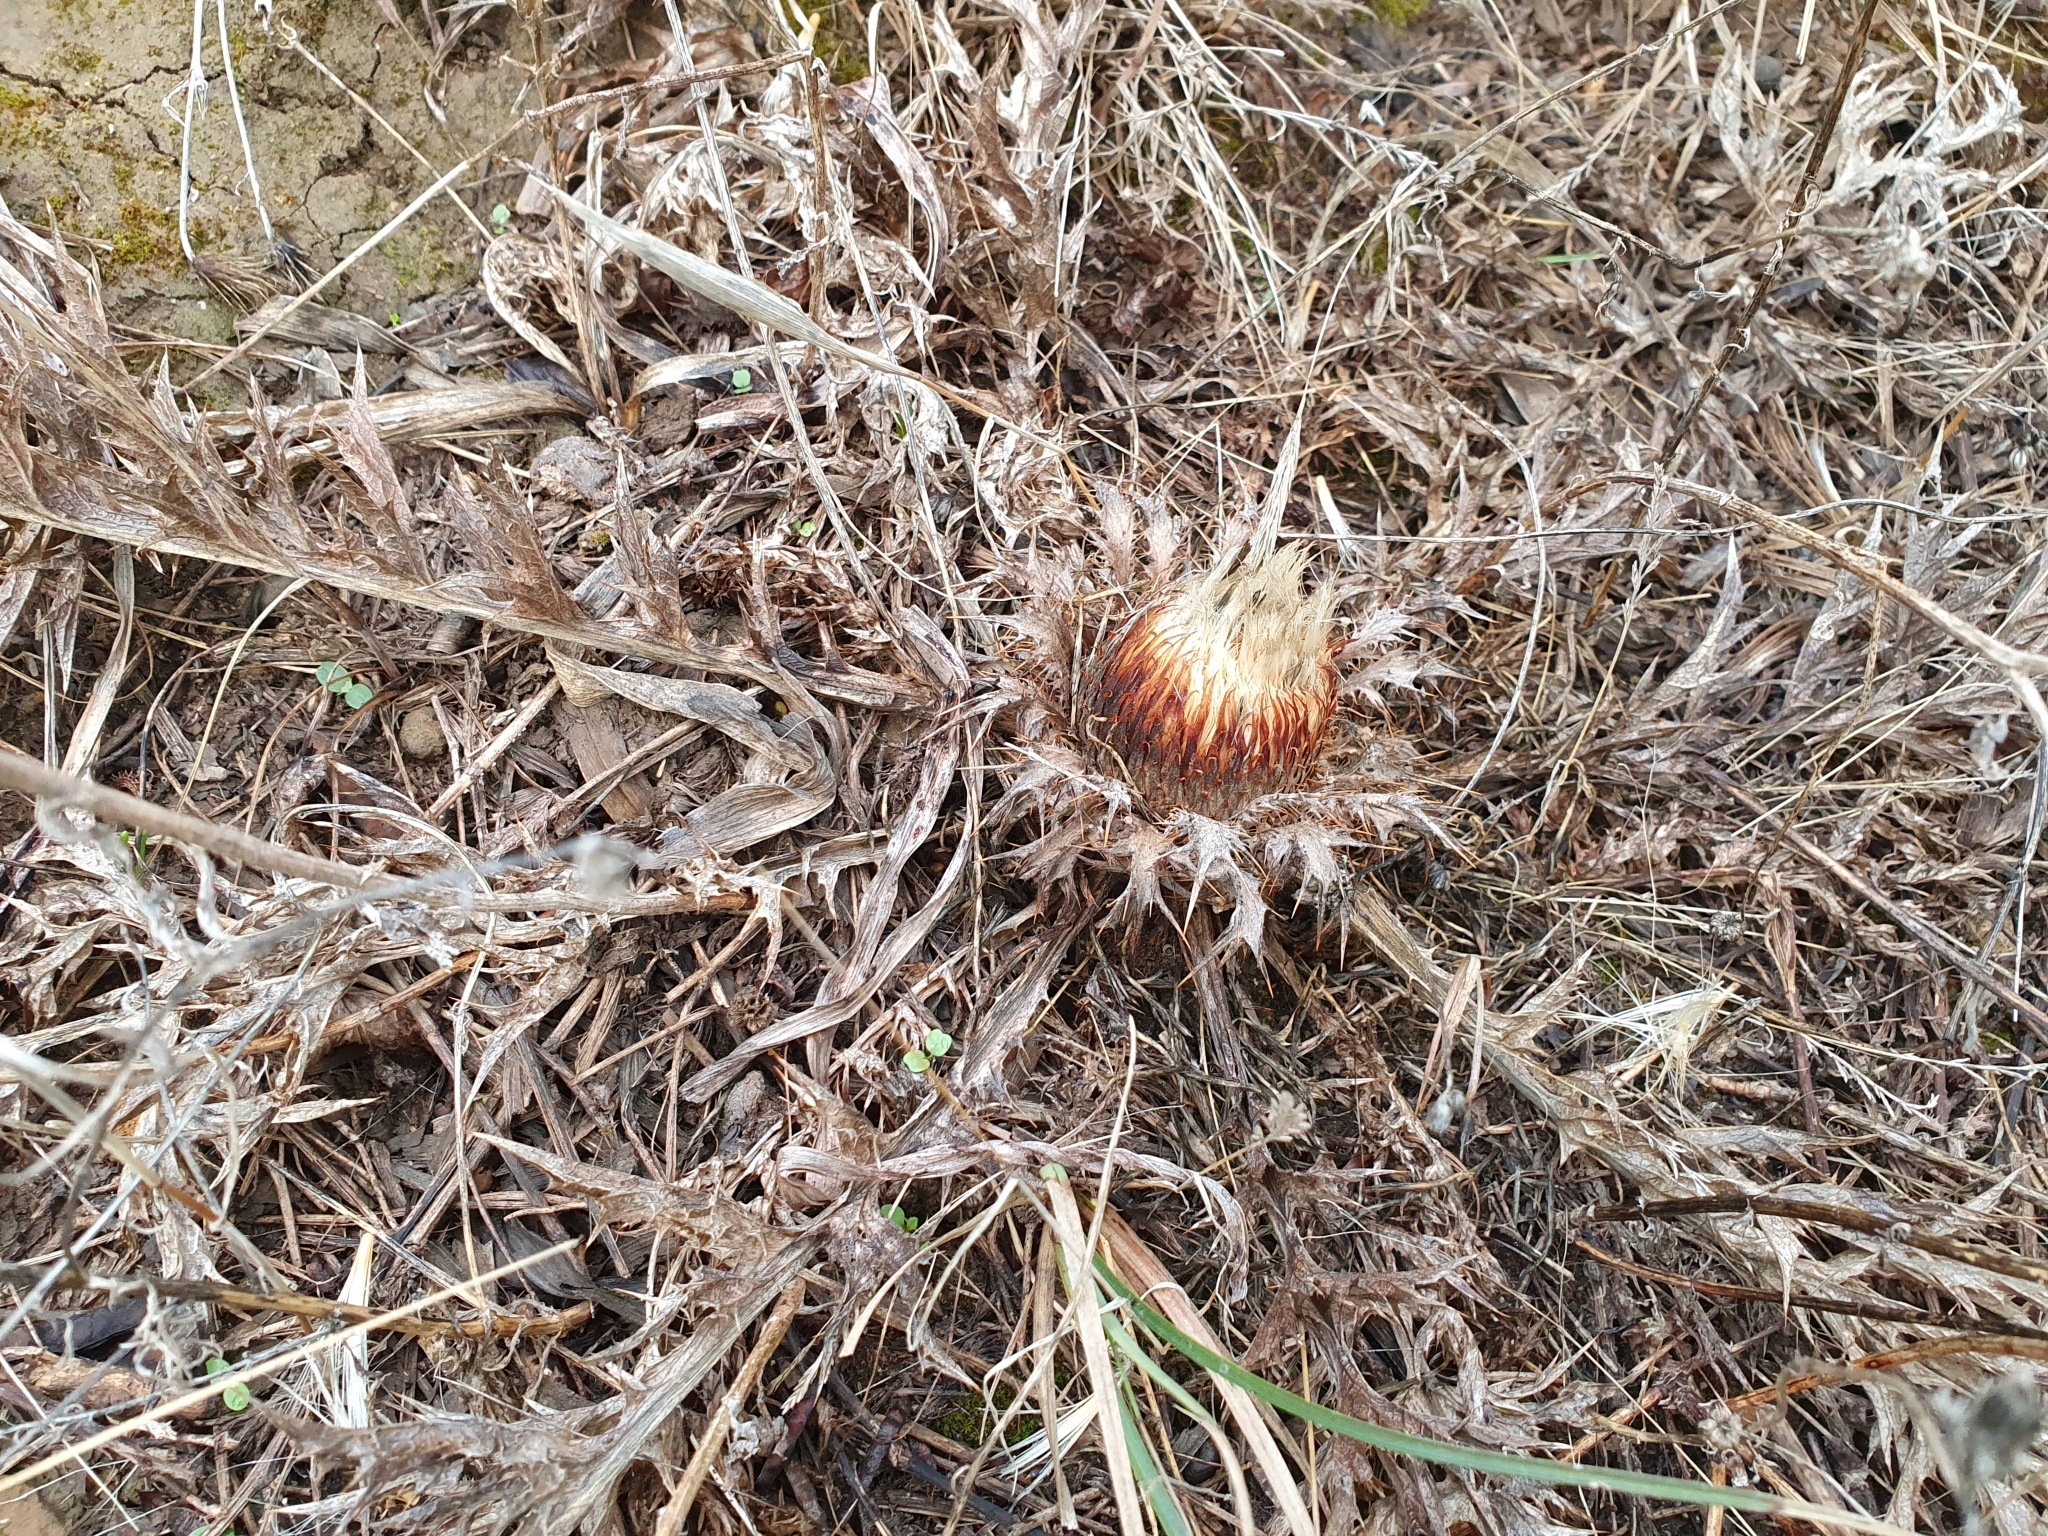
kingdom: Plantae
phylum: Tracheophyta
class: Magnoliopsida
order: Asterales
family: Asteraceae
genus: Chamaeleon
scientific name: Chamaeleon gummifer
